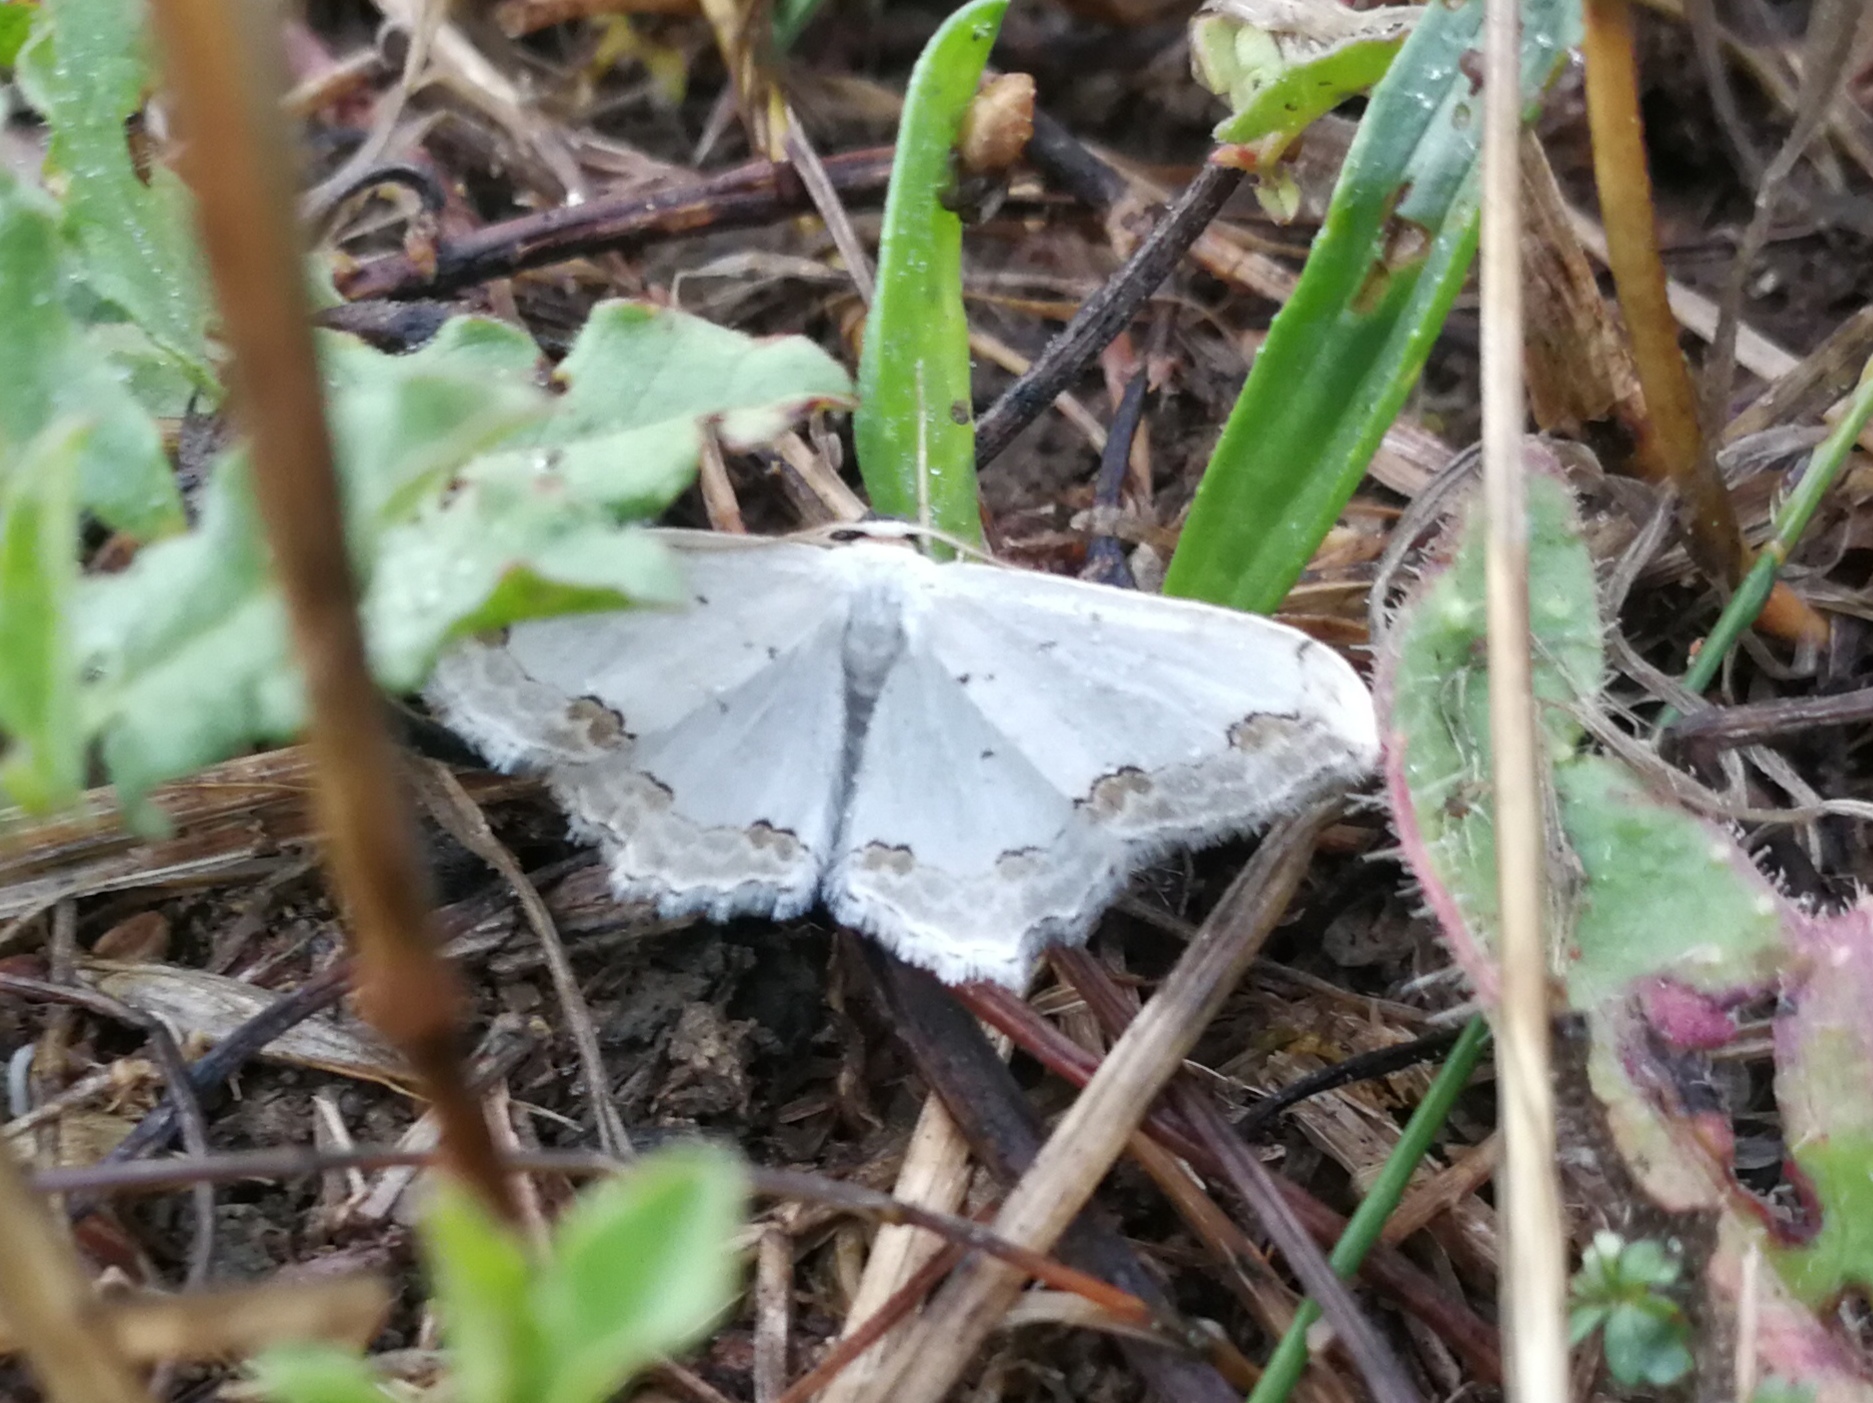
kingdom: Animalia
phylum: Arthropoda
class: Insecta
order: Lepidoptera
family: Geometridae
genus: Scopula
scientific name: Scopula ornata
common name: Lace border
